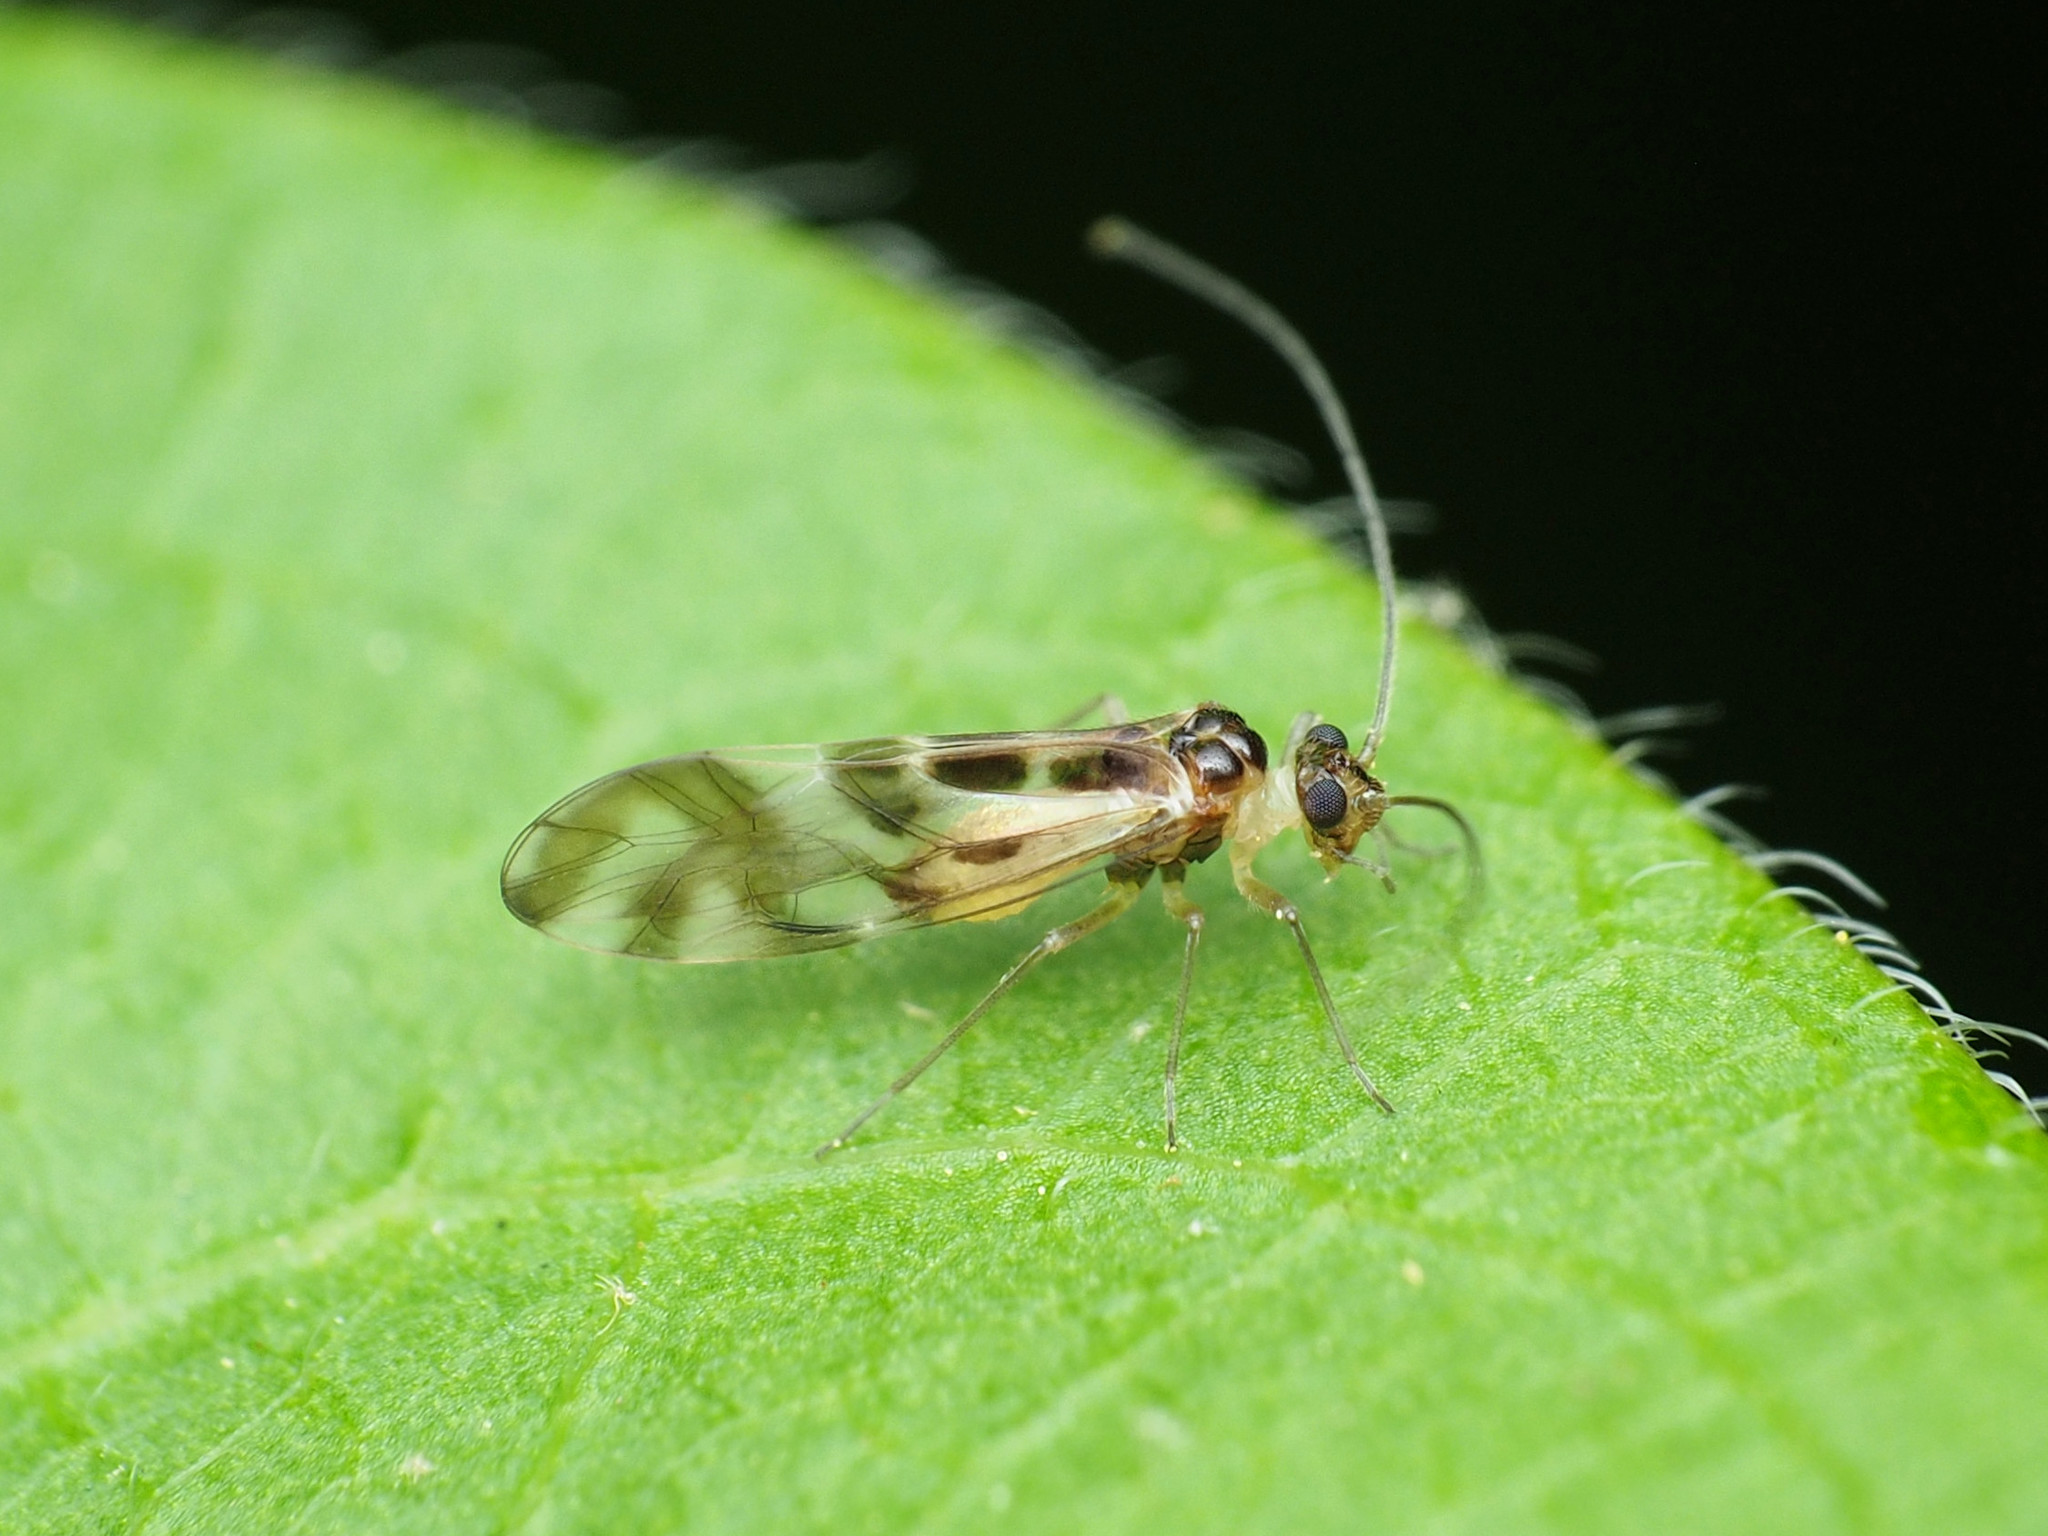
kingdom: Animalia
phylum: Arthropoda
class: Insecta
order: Psocodea
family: Stenopsocidae
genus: Graphopsocus
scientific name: Graphopsocus cruciatus
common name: Lizard bark louse
